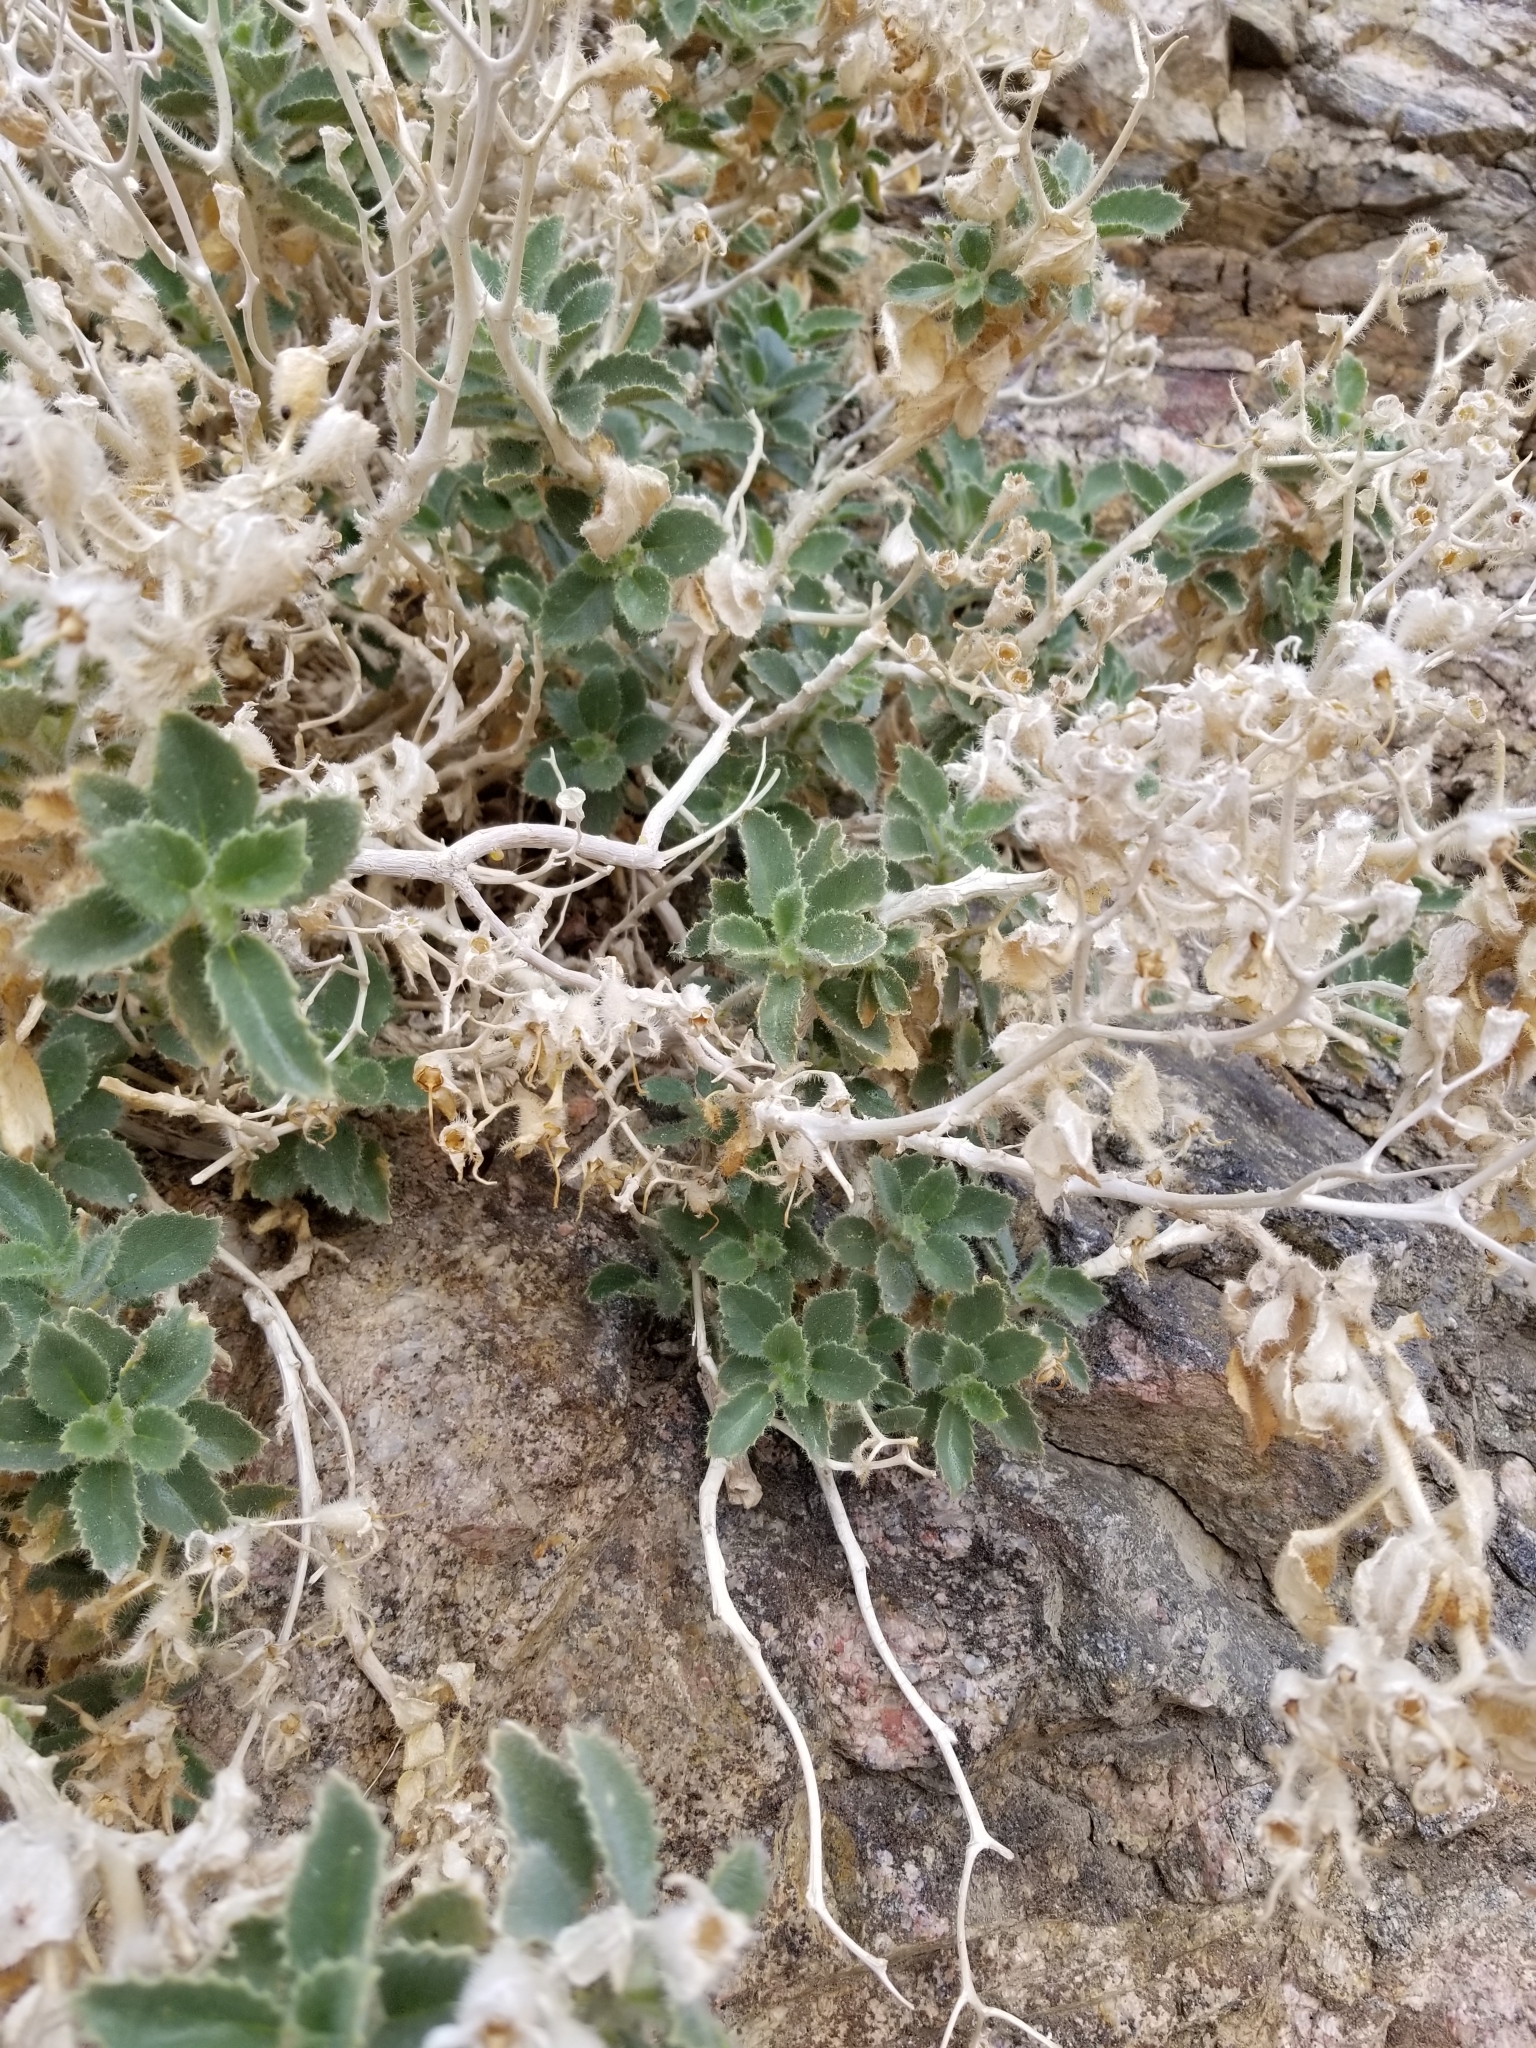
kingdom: Plantae
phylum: Tracheophyta
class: Magnoliopsida
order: Cornales
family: Loasaceae
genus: Eucnide
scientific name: Eucnide urens
